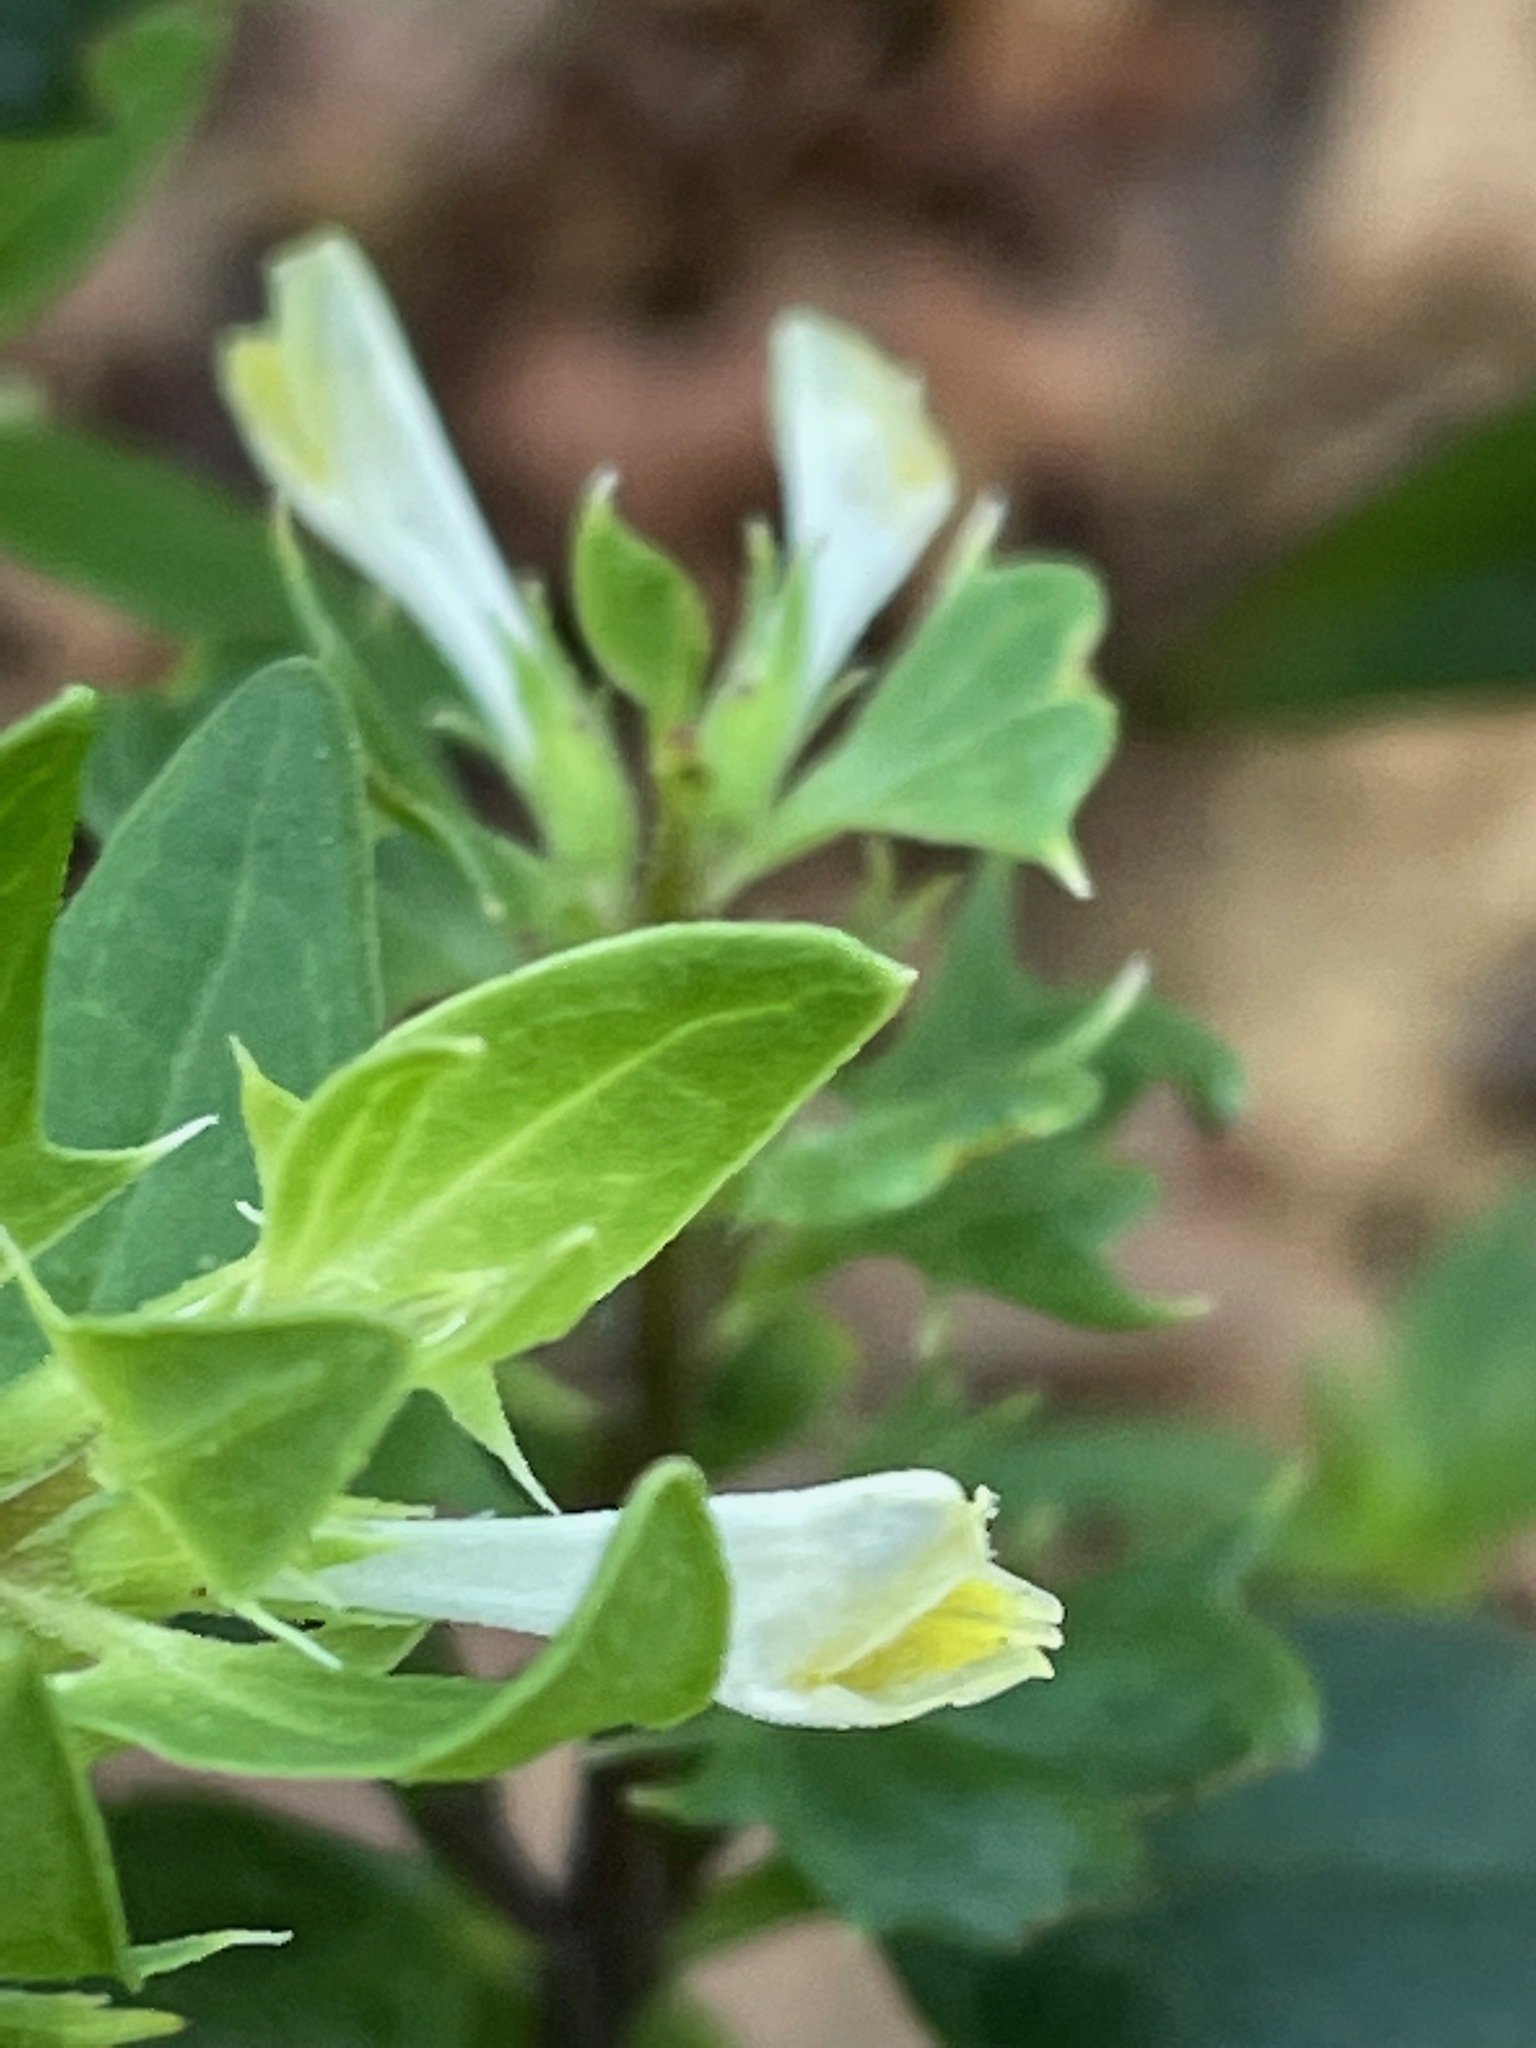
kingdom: Plantae
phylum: Tracheophyta
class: Magnoliopsida
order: Lamiales
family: Orobanchaceae
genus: Melampyrum
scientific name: Melampyrum lineare
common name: American cow-wheat
